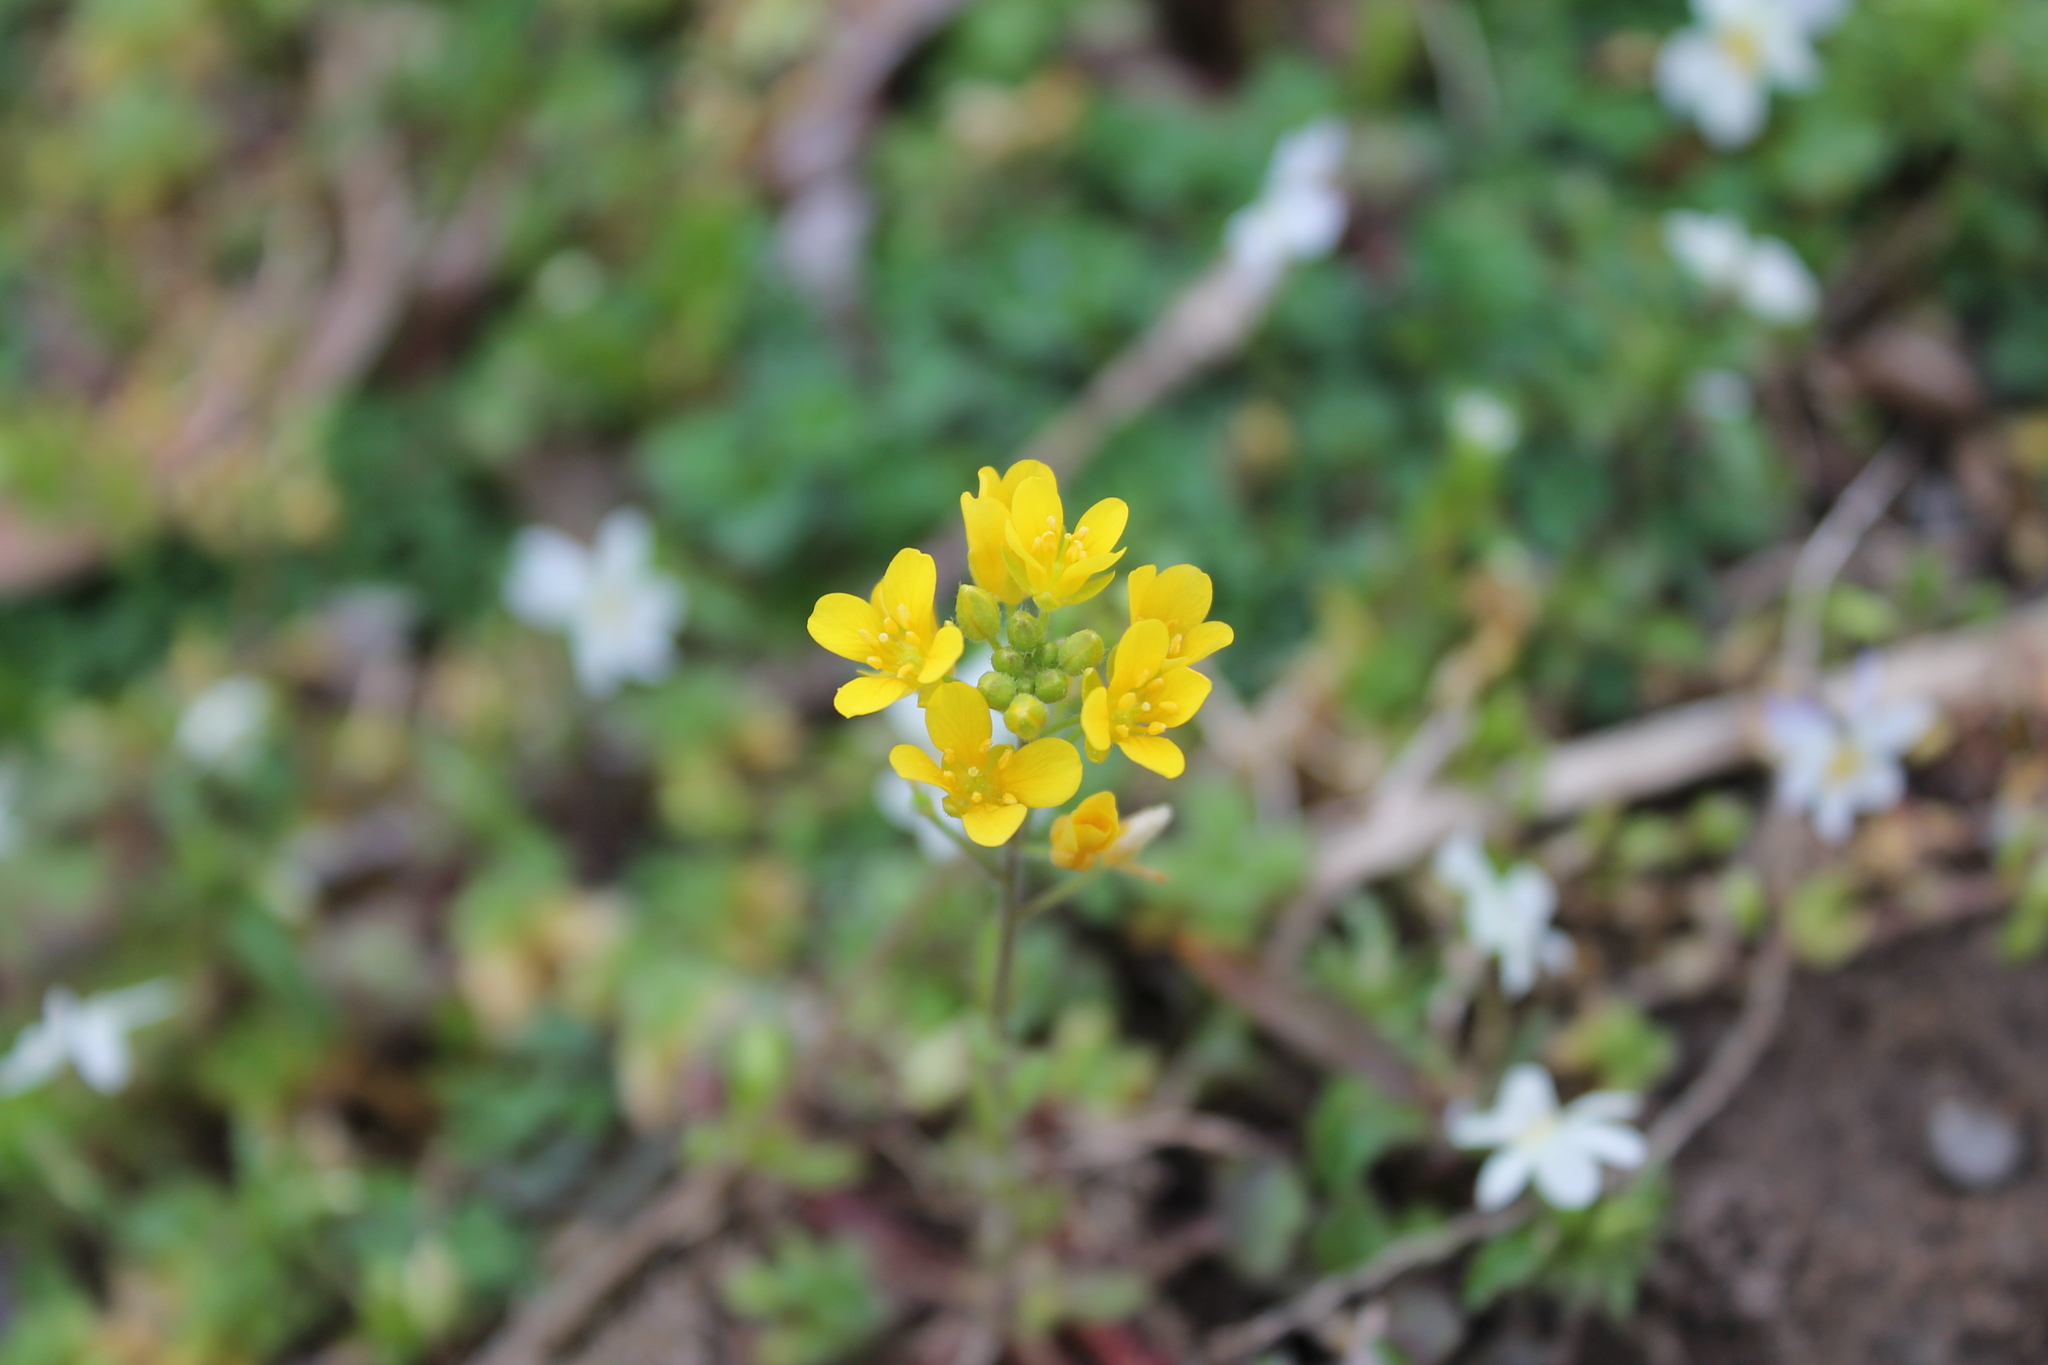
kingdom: Plantae
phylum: Tracheophyta
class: Magnoliopsida
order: Brassicales
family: Brassicaceae
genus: Paysonia
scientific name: Paysonia lescurii
